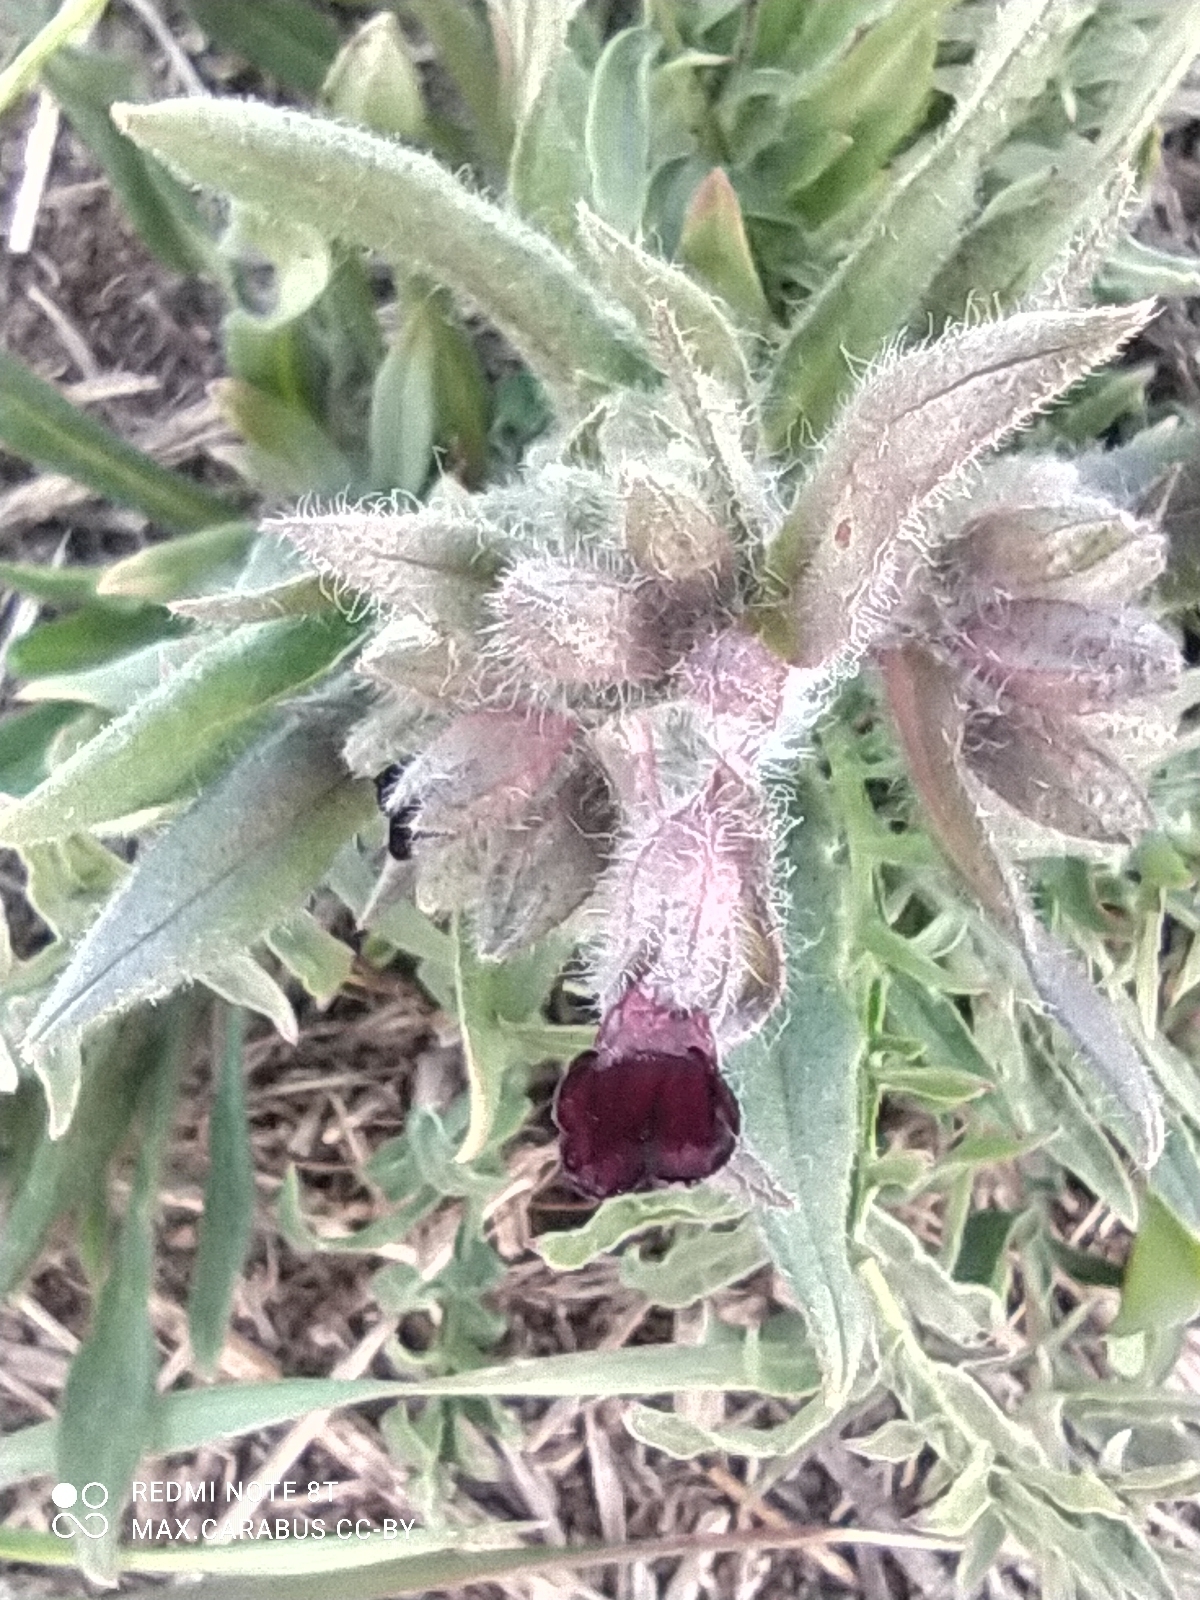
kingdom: Plantae
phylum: Tracheophyta
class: Magnoliopsida
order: Boraginales
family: Boraginaceae
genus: Nonea
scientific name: Nonea pulla
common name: Brown nonea
